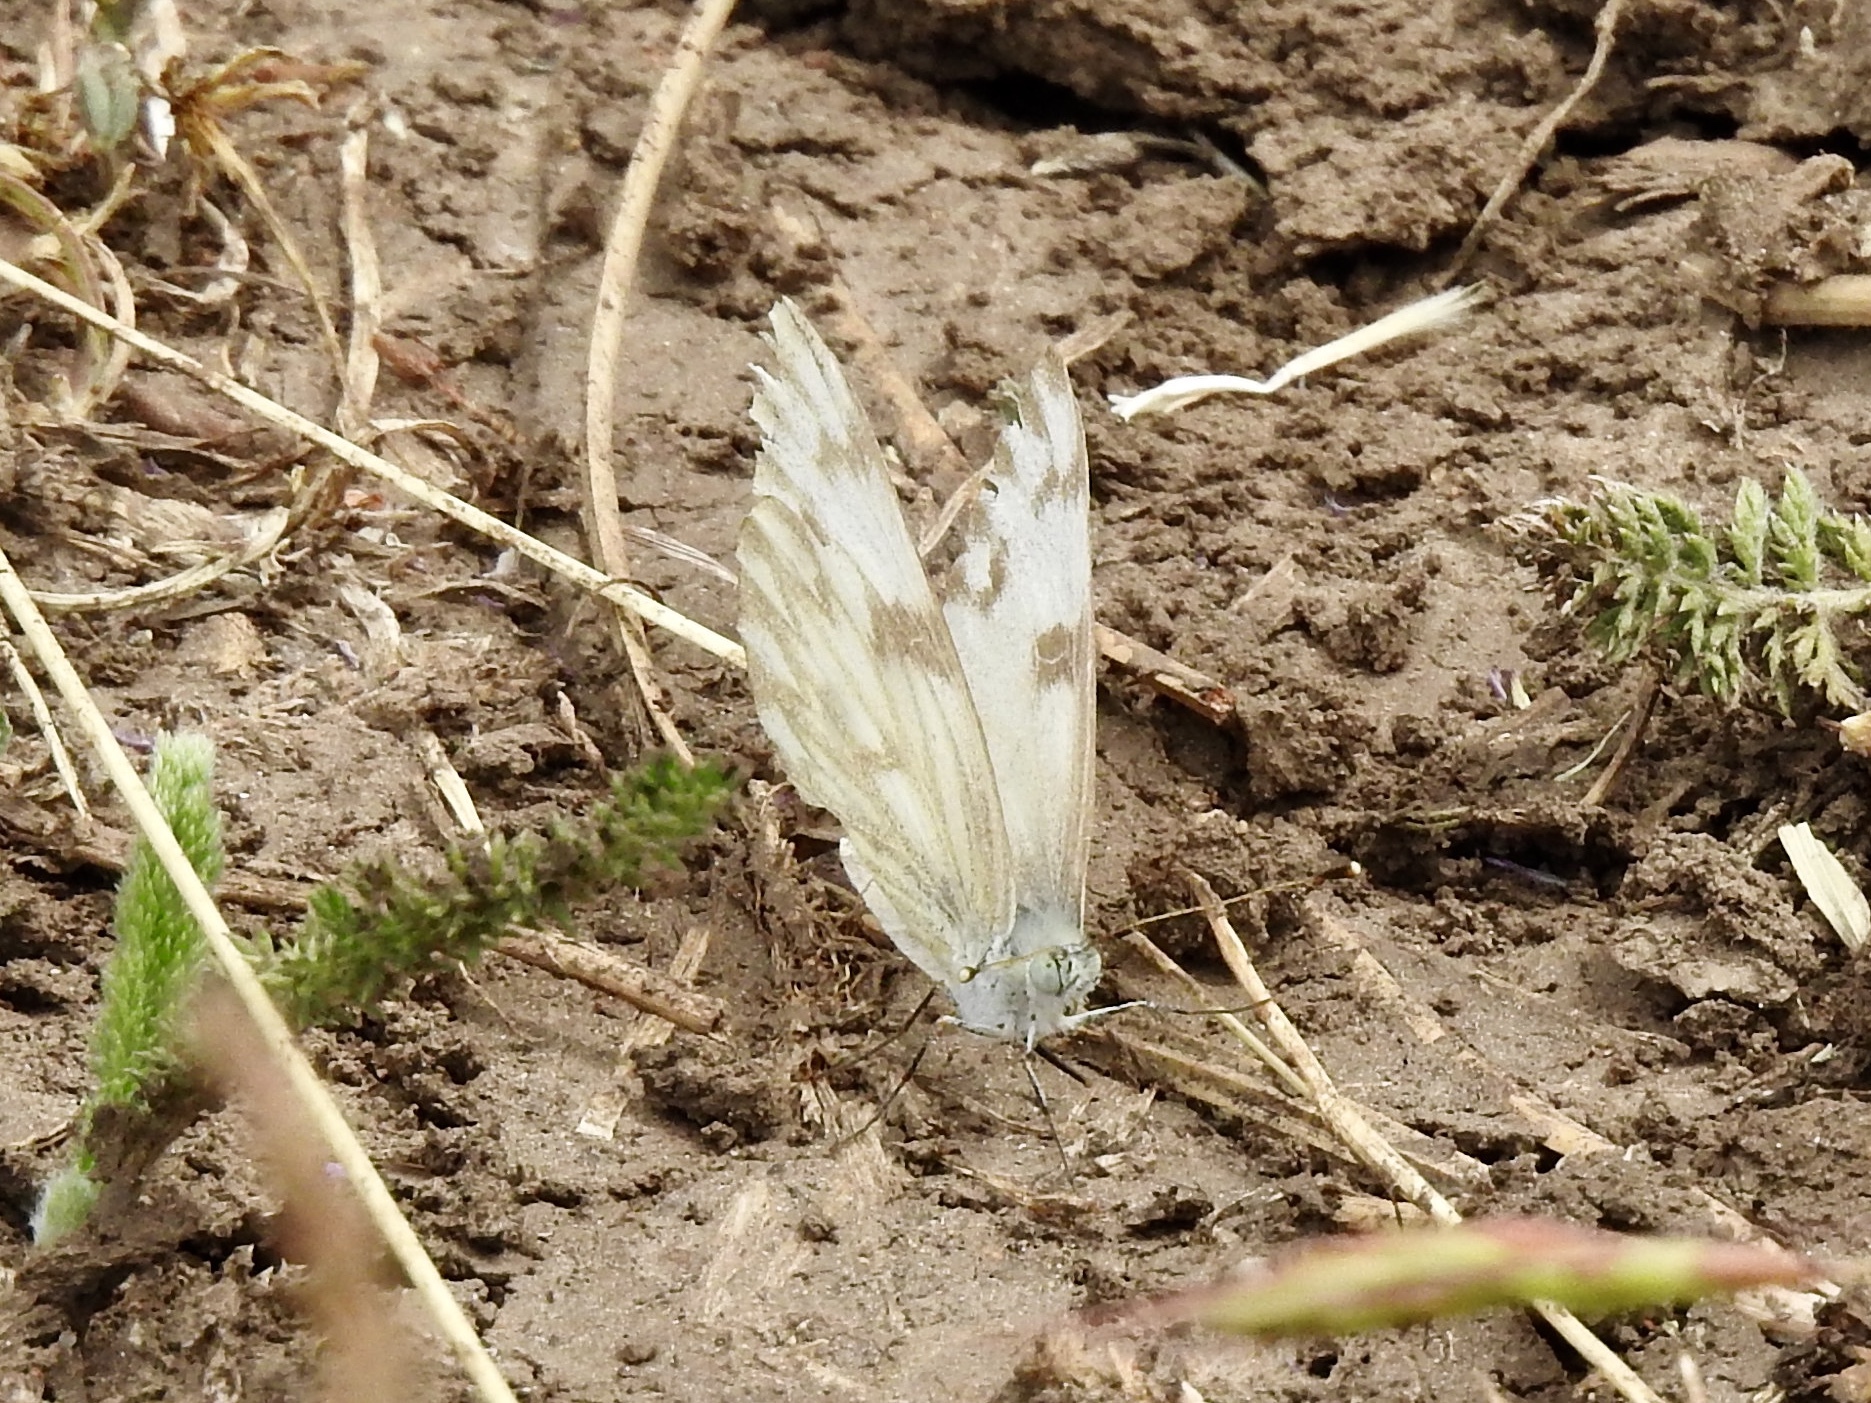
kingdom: Animalia
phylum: Arthropoda
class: Insecta
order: Lepidoptera
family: Pieridae
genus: Pontia
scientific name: Pontia protodice
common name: Checkered white
